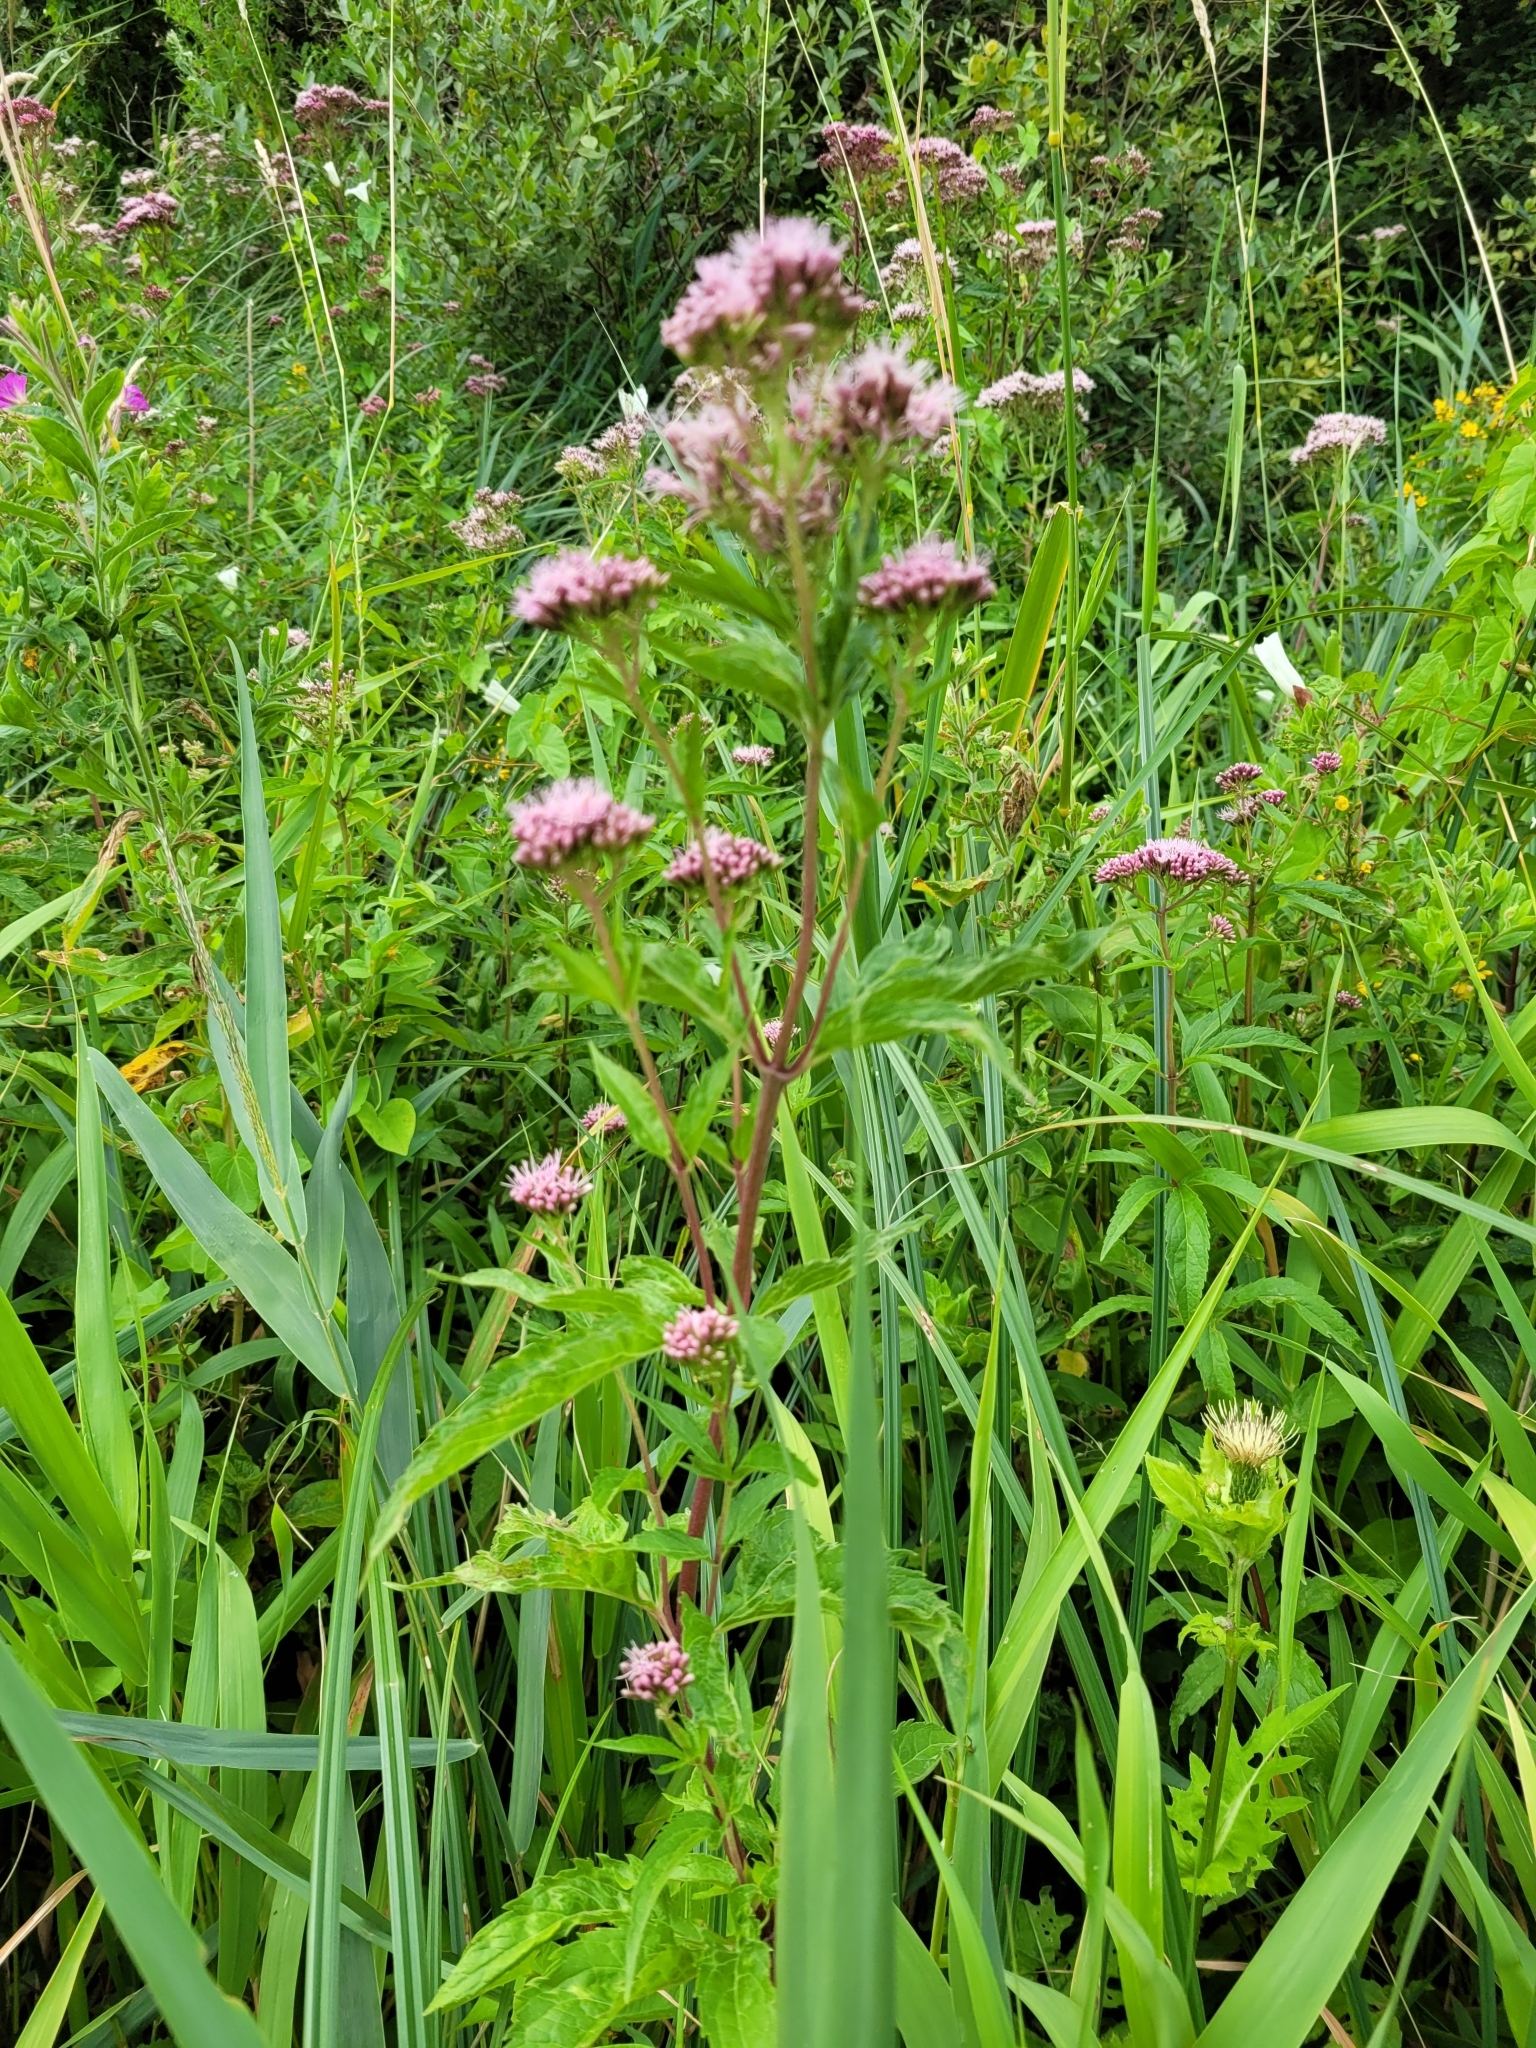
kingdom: Plantae
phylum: Tracheophyta
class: Magnoliopsida
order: Asterales
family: Asteraceae
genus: Eupatorium
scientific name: Eupatorium cannabinum
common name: Hemp-agrimony
